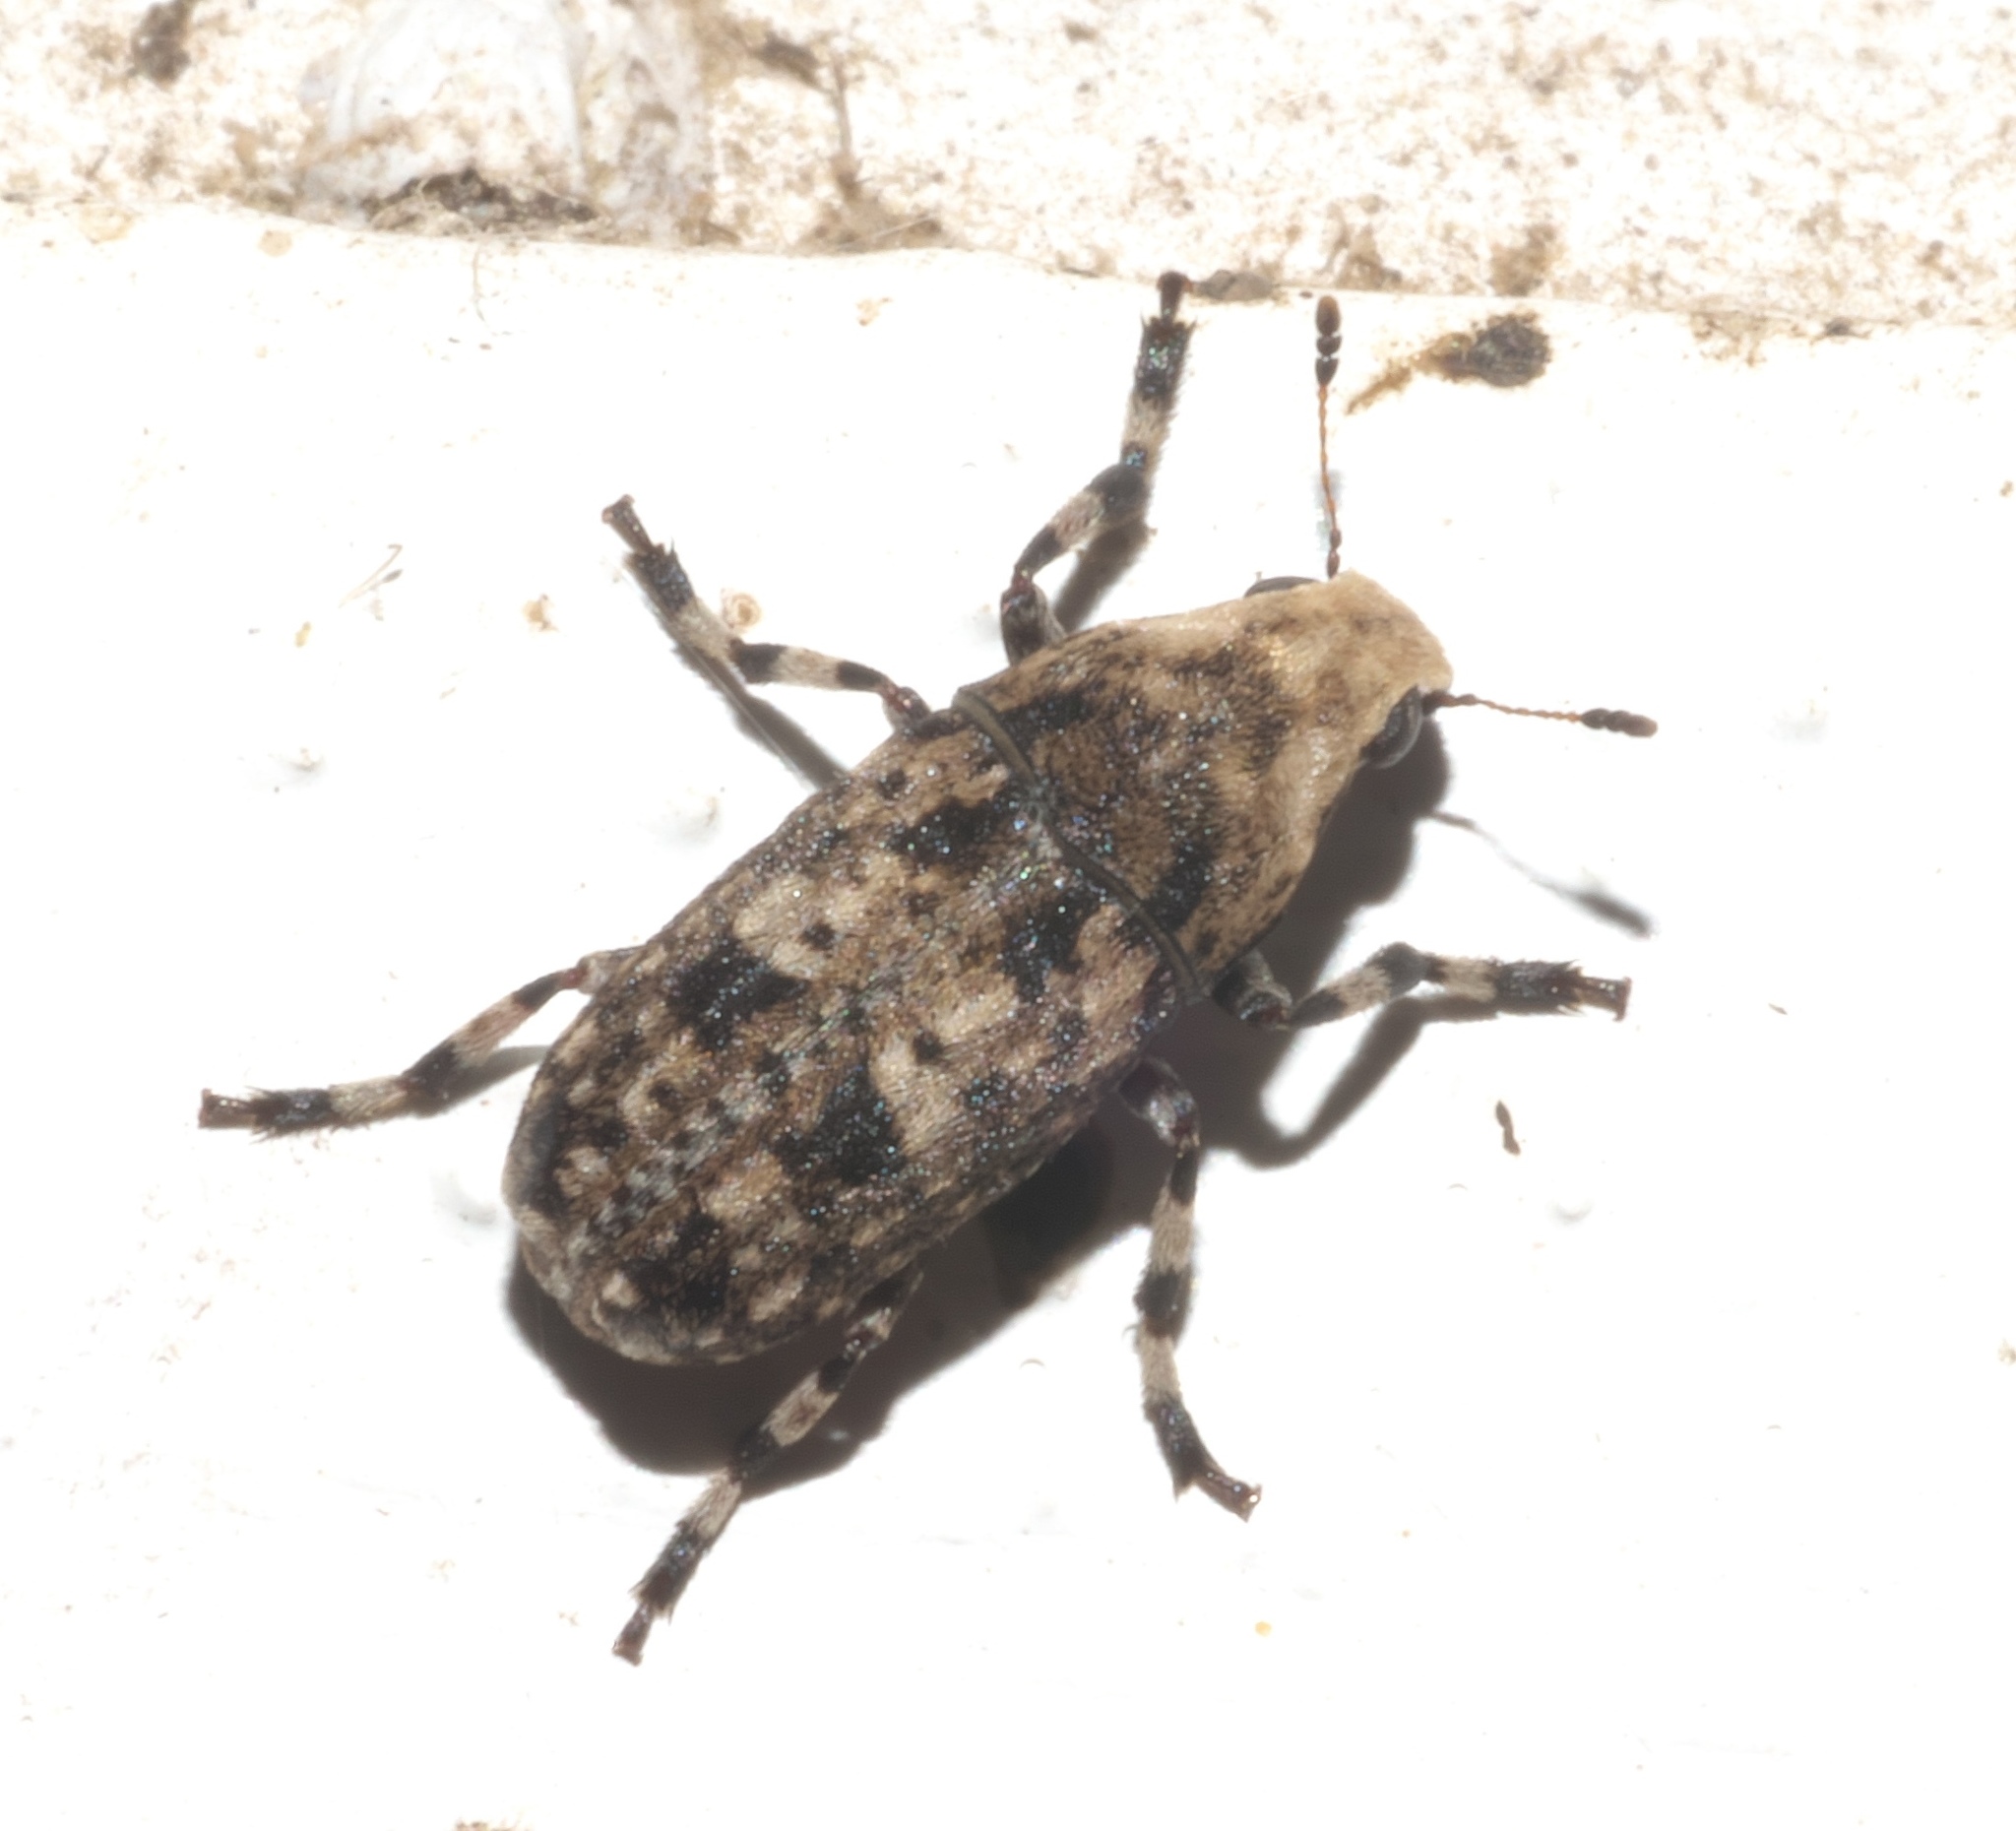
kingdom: Animalia
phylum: Arthropoda
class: Insecta
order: Coleoptera
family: Anthribidae
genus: Euparius
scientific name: Euparius marmoreus
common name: Marbled fungus weevil
